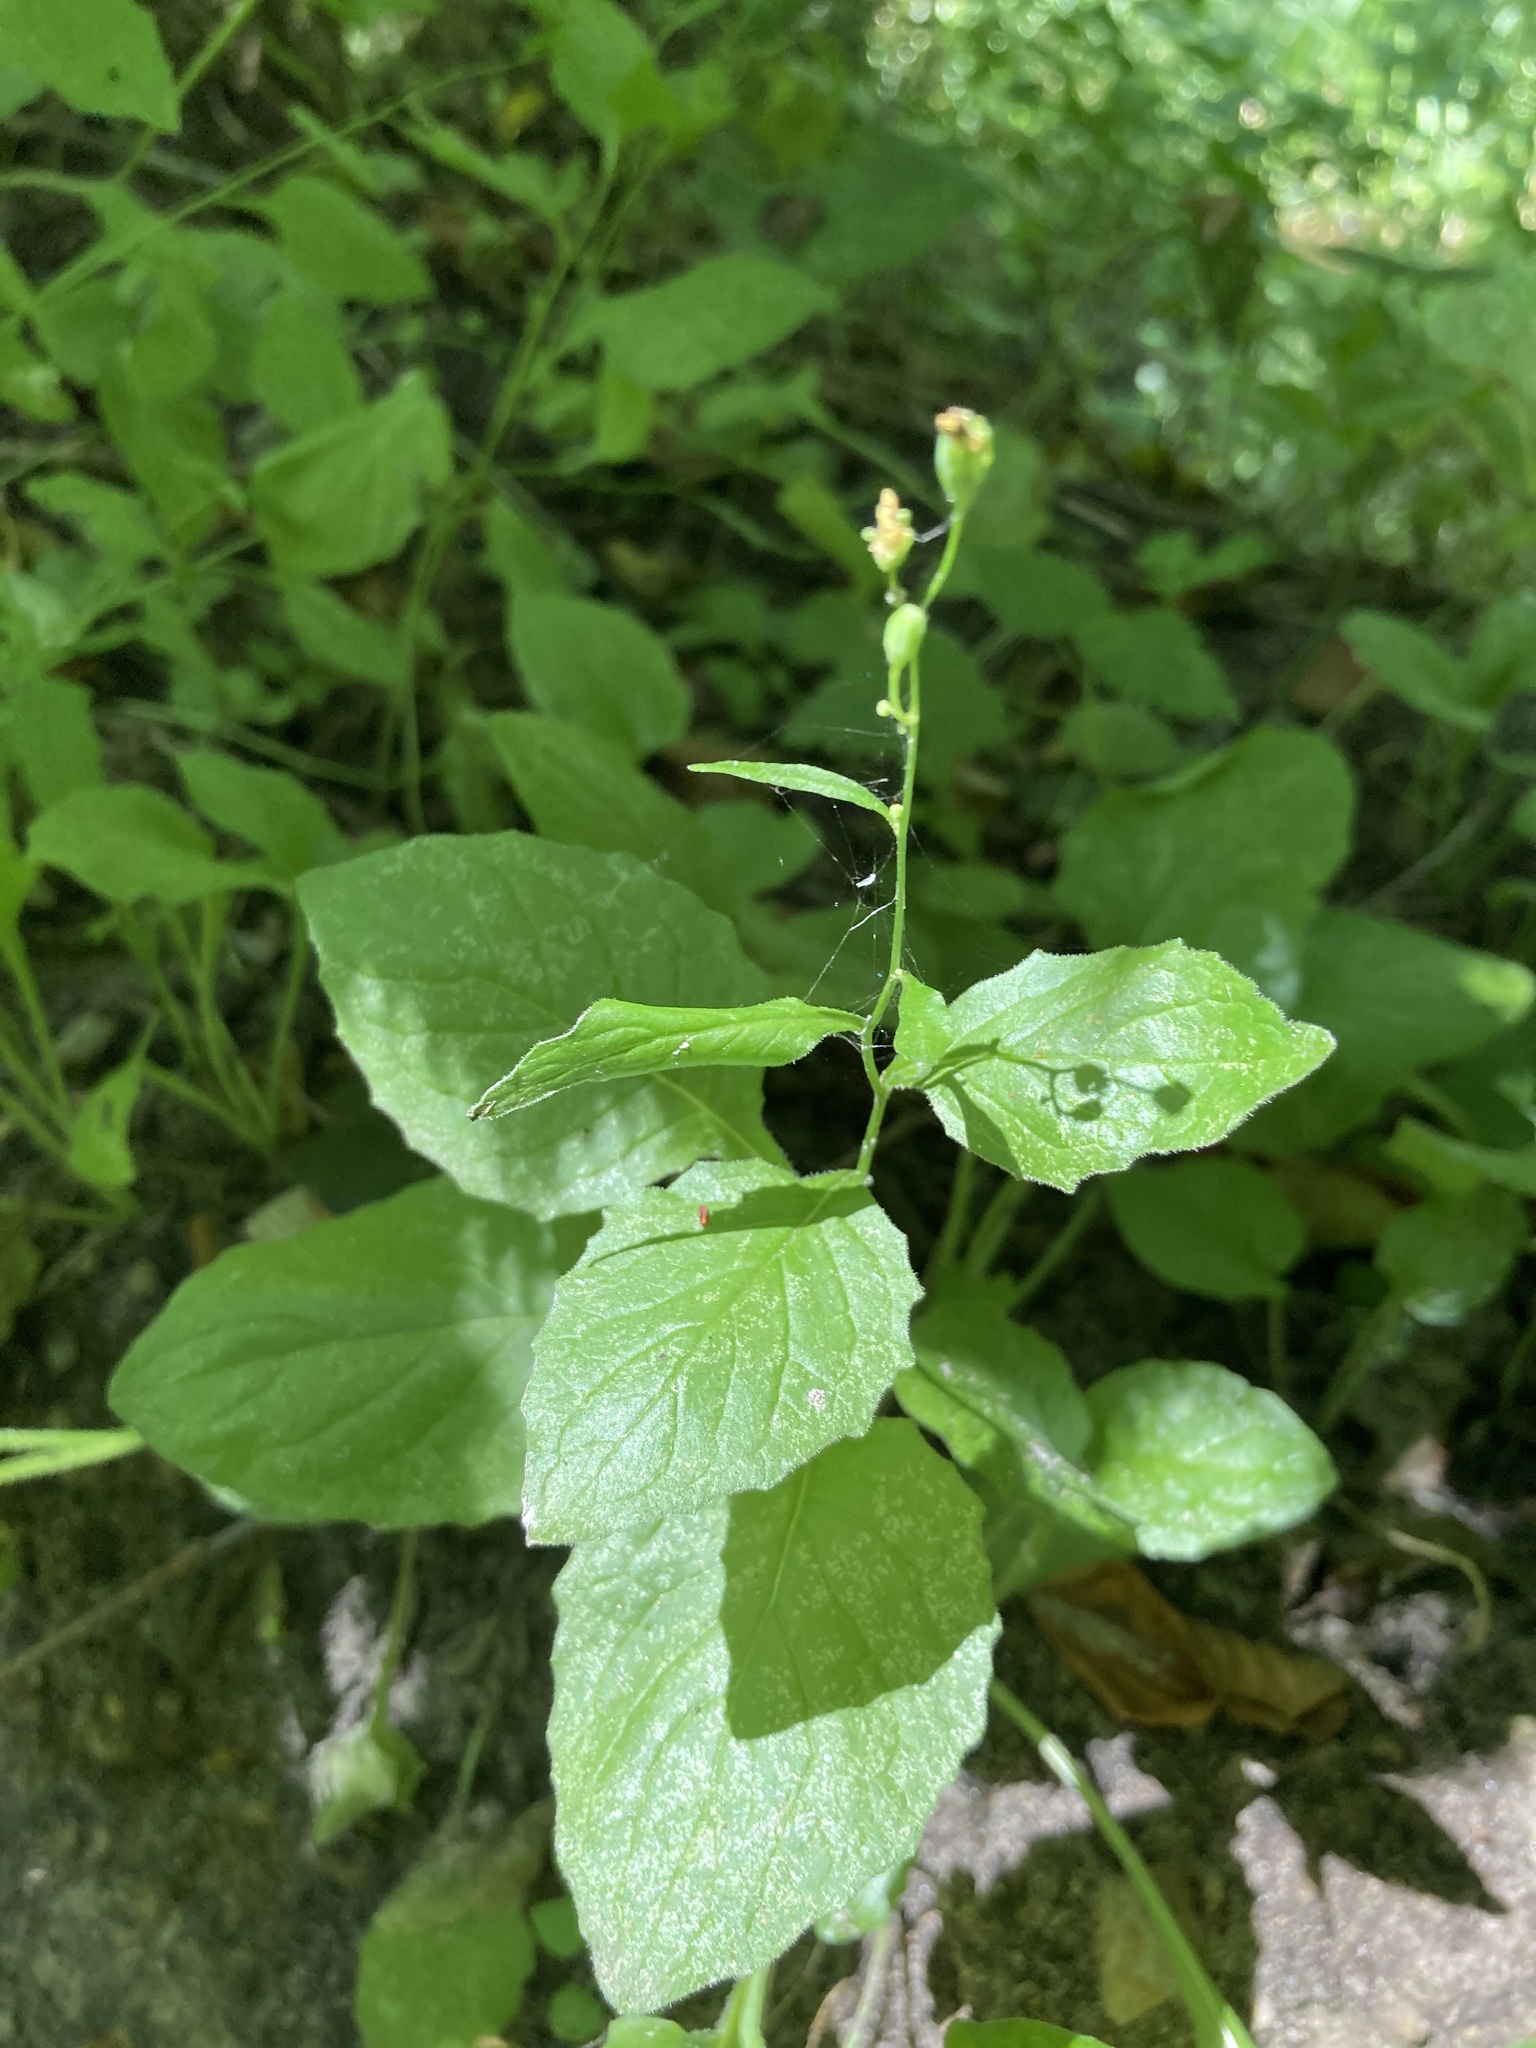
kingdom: Plantae
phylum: Tracheophyta
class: Magnoliopsida
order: Asterales
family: Asteraceae
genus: Lapsana
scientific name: Lapsana communis
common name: Nipplewort
